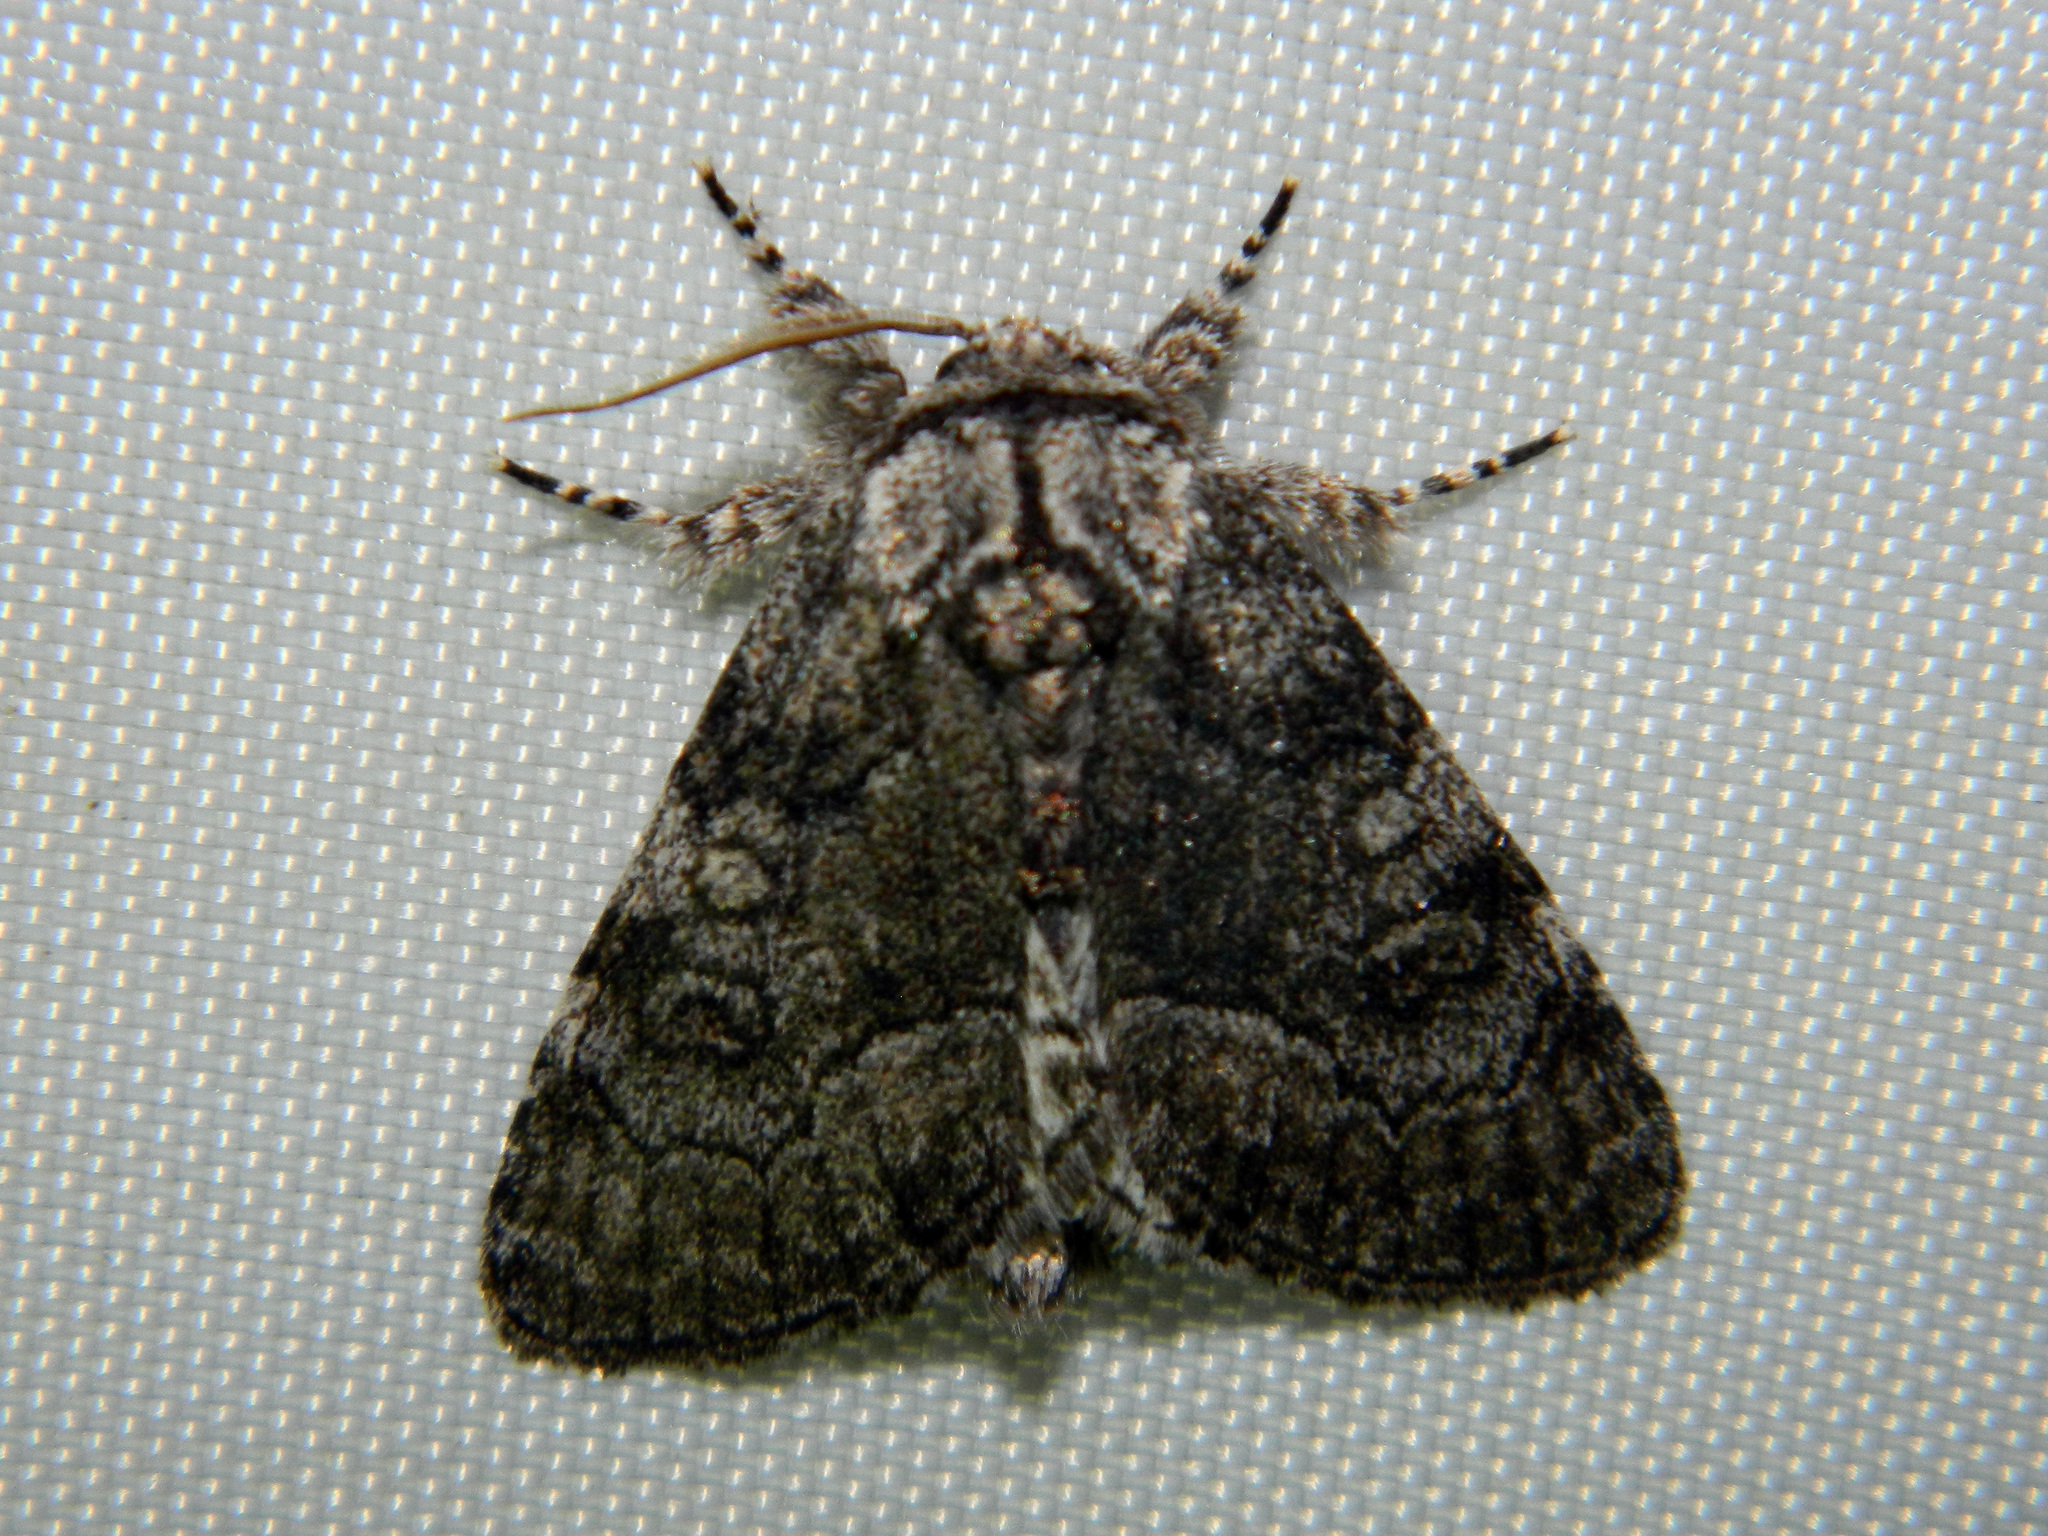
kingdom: Animalia
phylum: Arthropoda
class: Insecta
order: Lepidoptera
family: Noctuidae
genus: Raphia
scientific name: Raphia frater
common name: Brother
